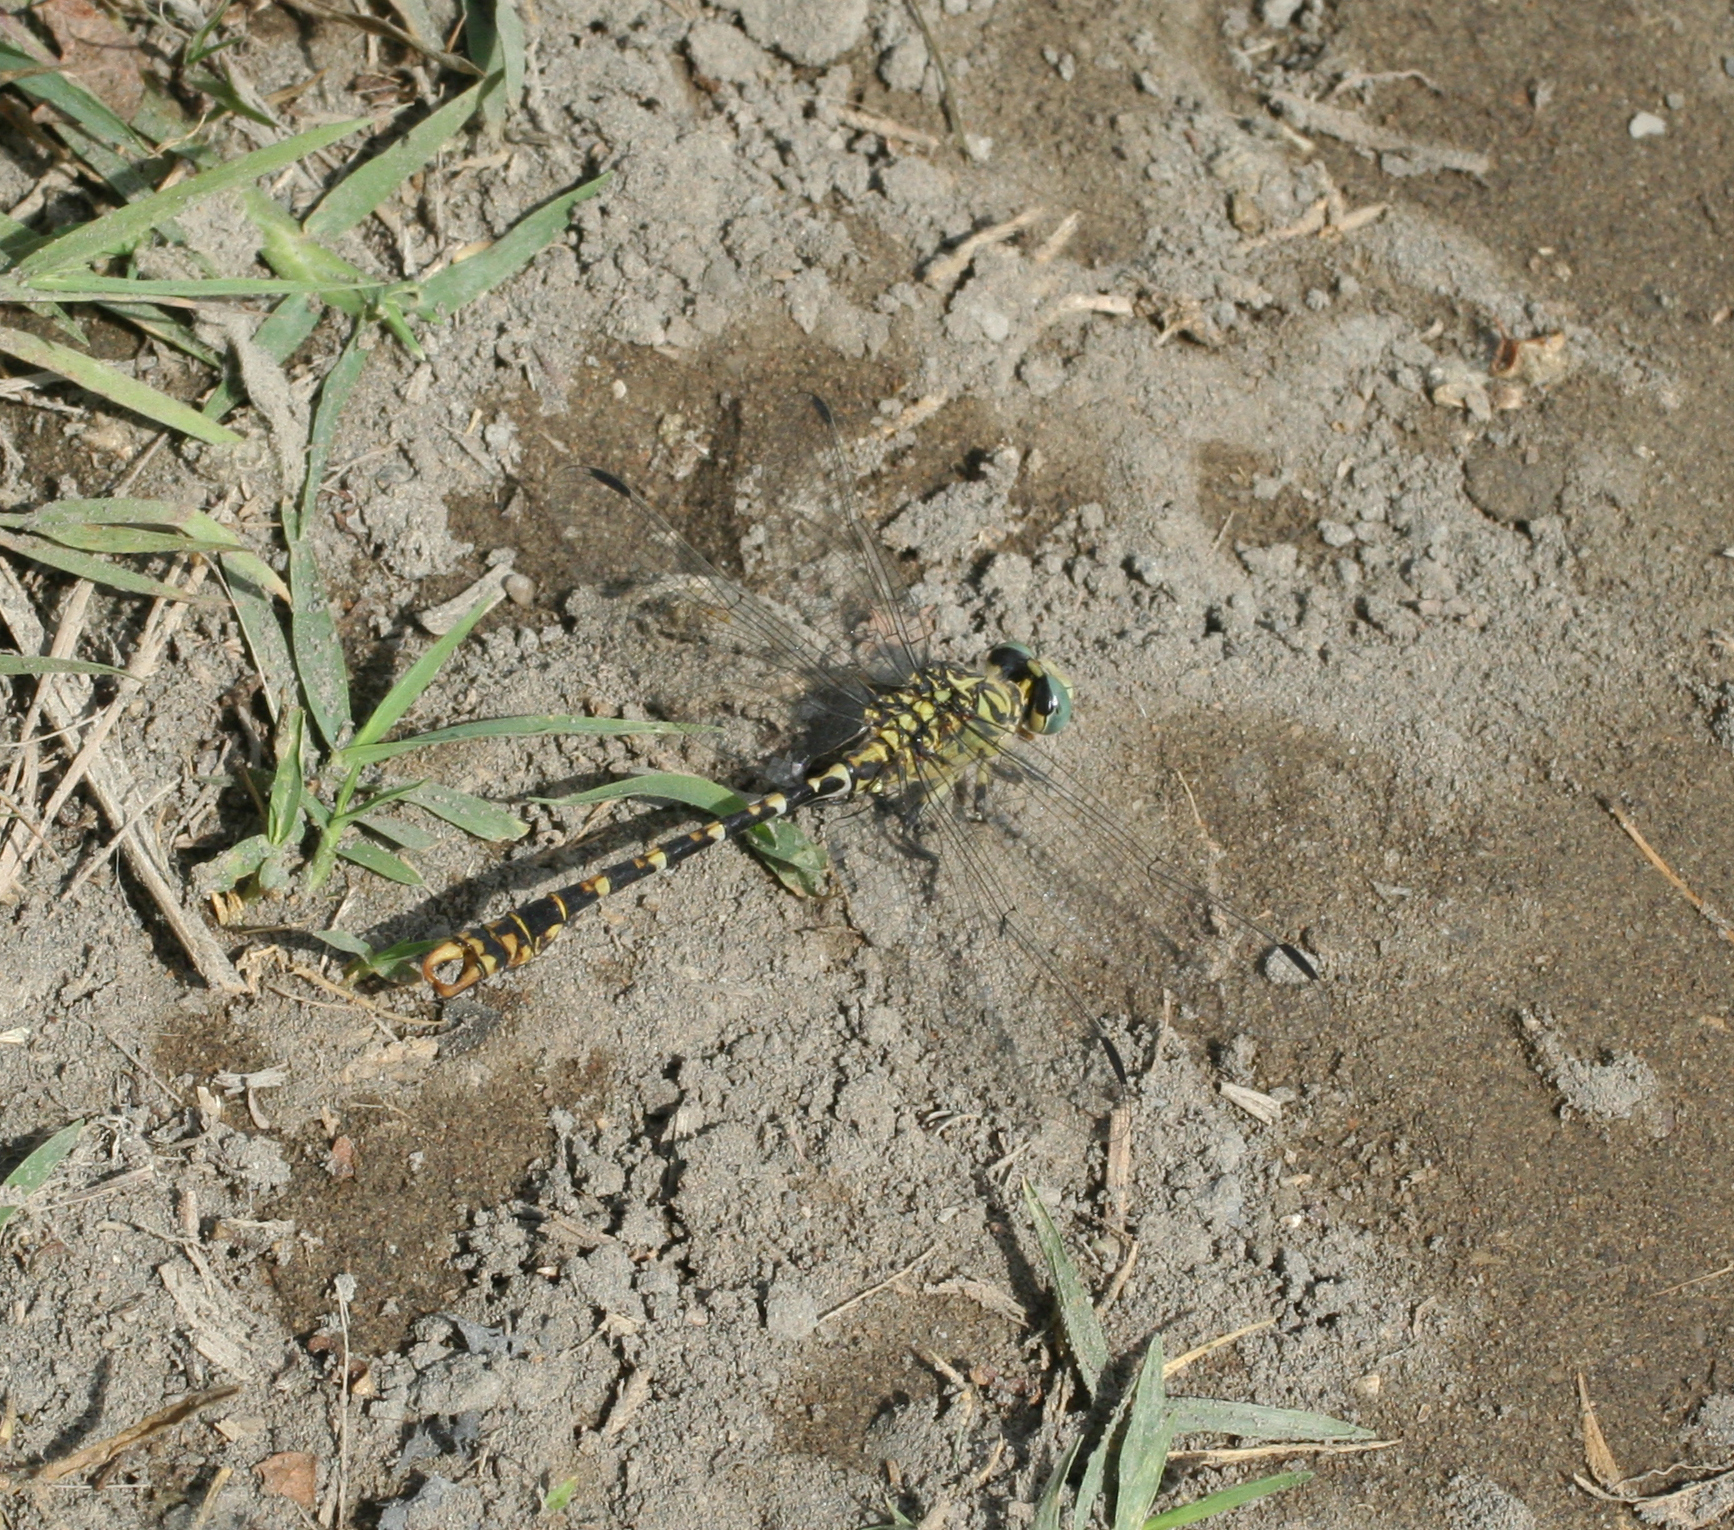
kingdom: Animalia
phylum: Arthropoda
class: Insecta
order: Odonata
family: Gomphidae
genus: Onychogomphus
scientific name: Onychogomphus forcipatus
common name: Small pincertail
